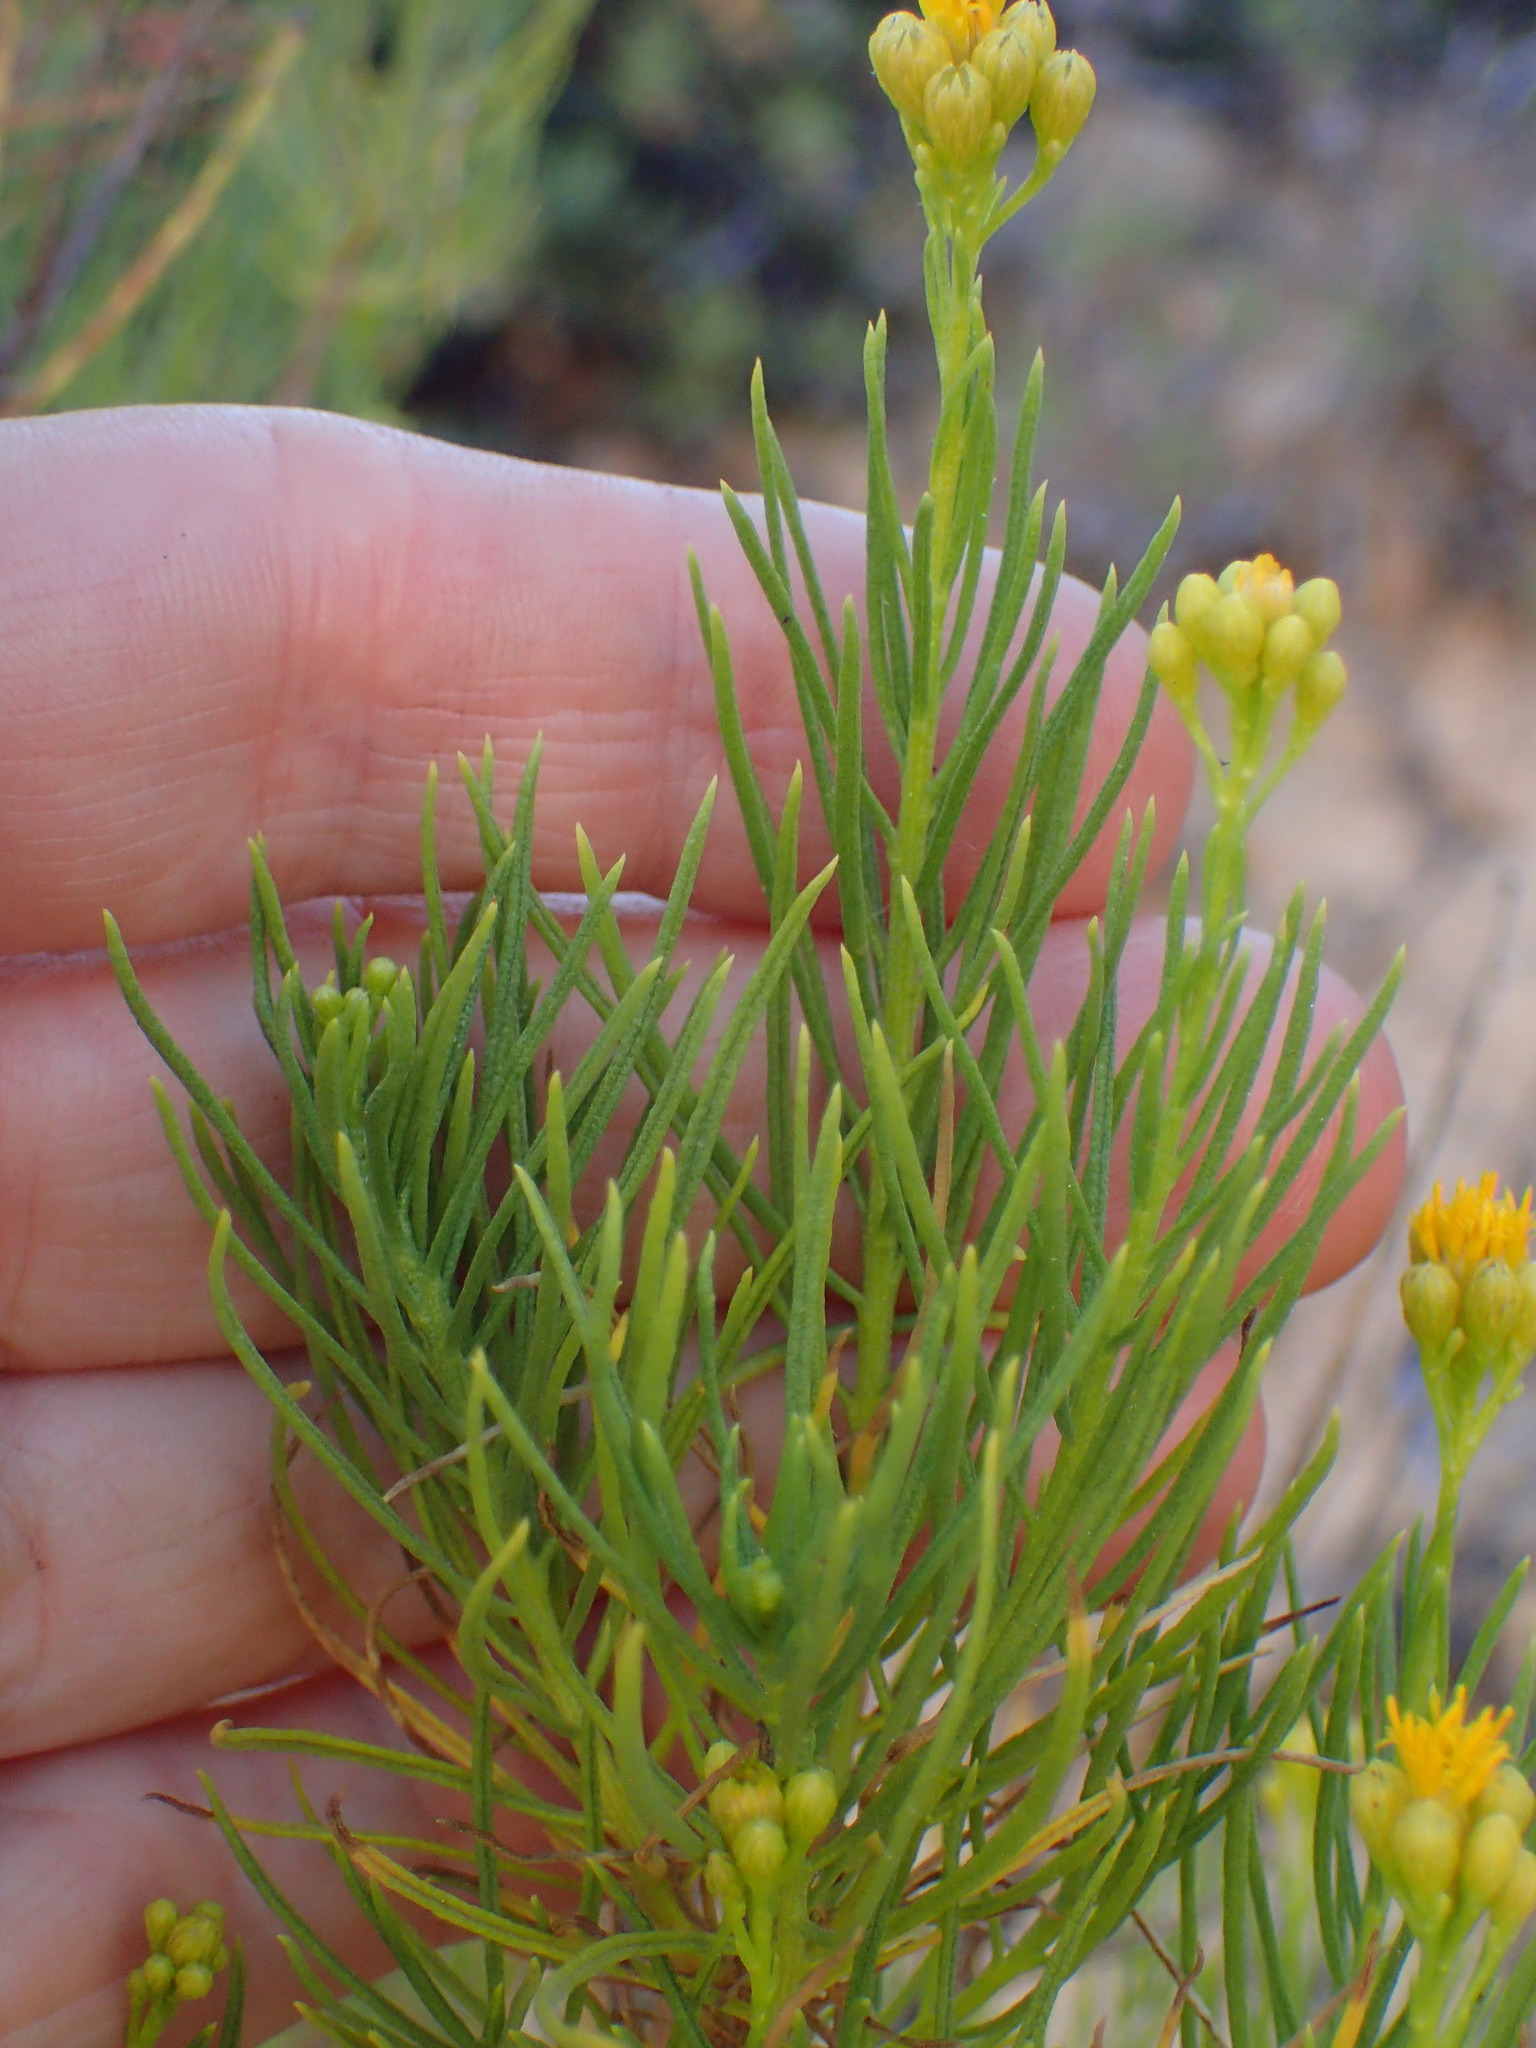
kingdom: Plantae
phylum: Tracheophyta
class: Magnoliopsida
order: Asterales
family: Asteraceae
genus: Ericameria
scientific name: Ericameria arborescens
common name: Goldenfleece
